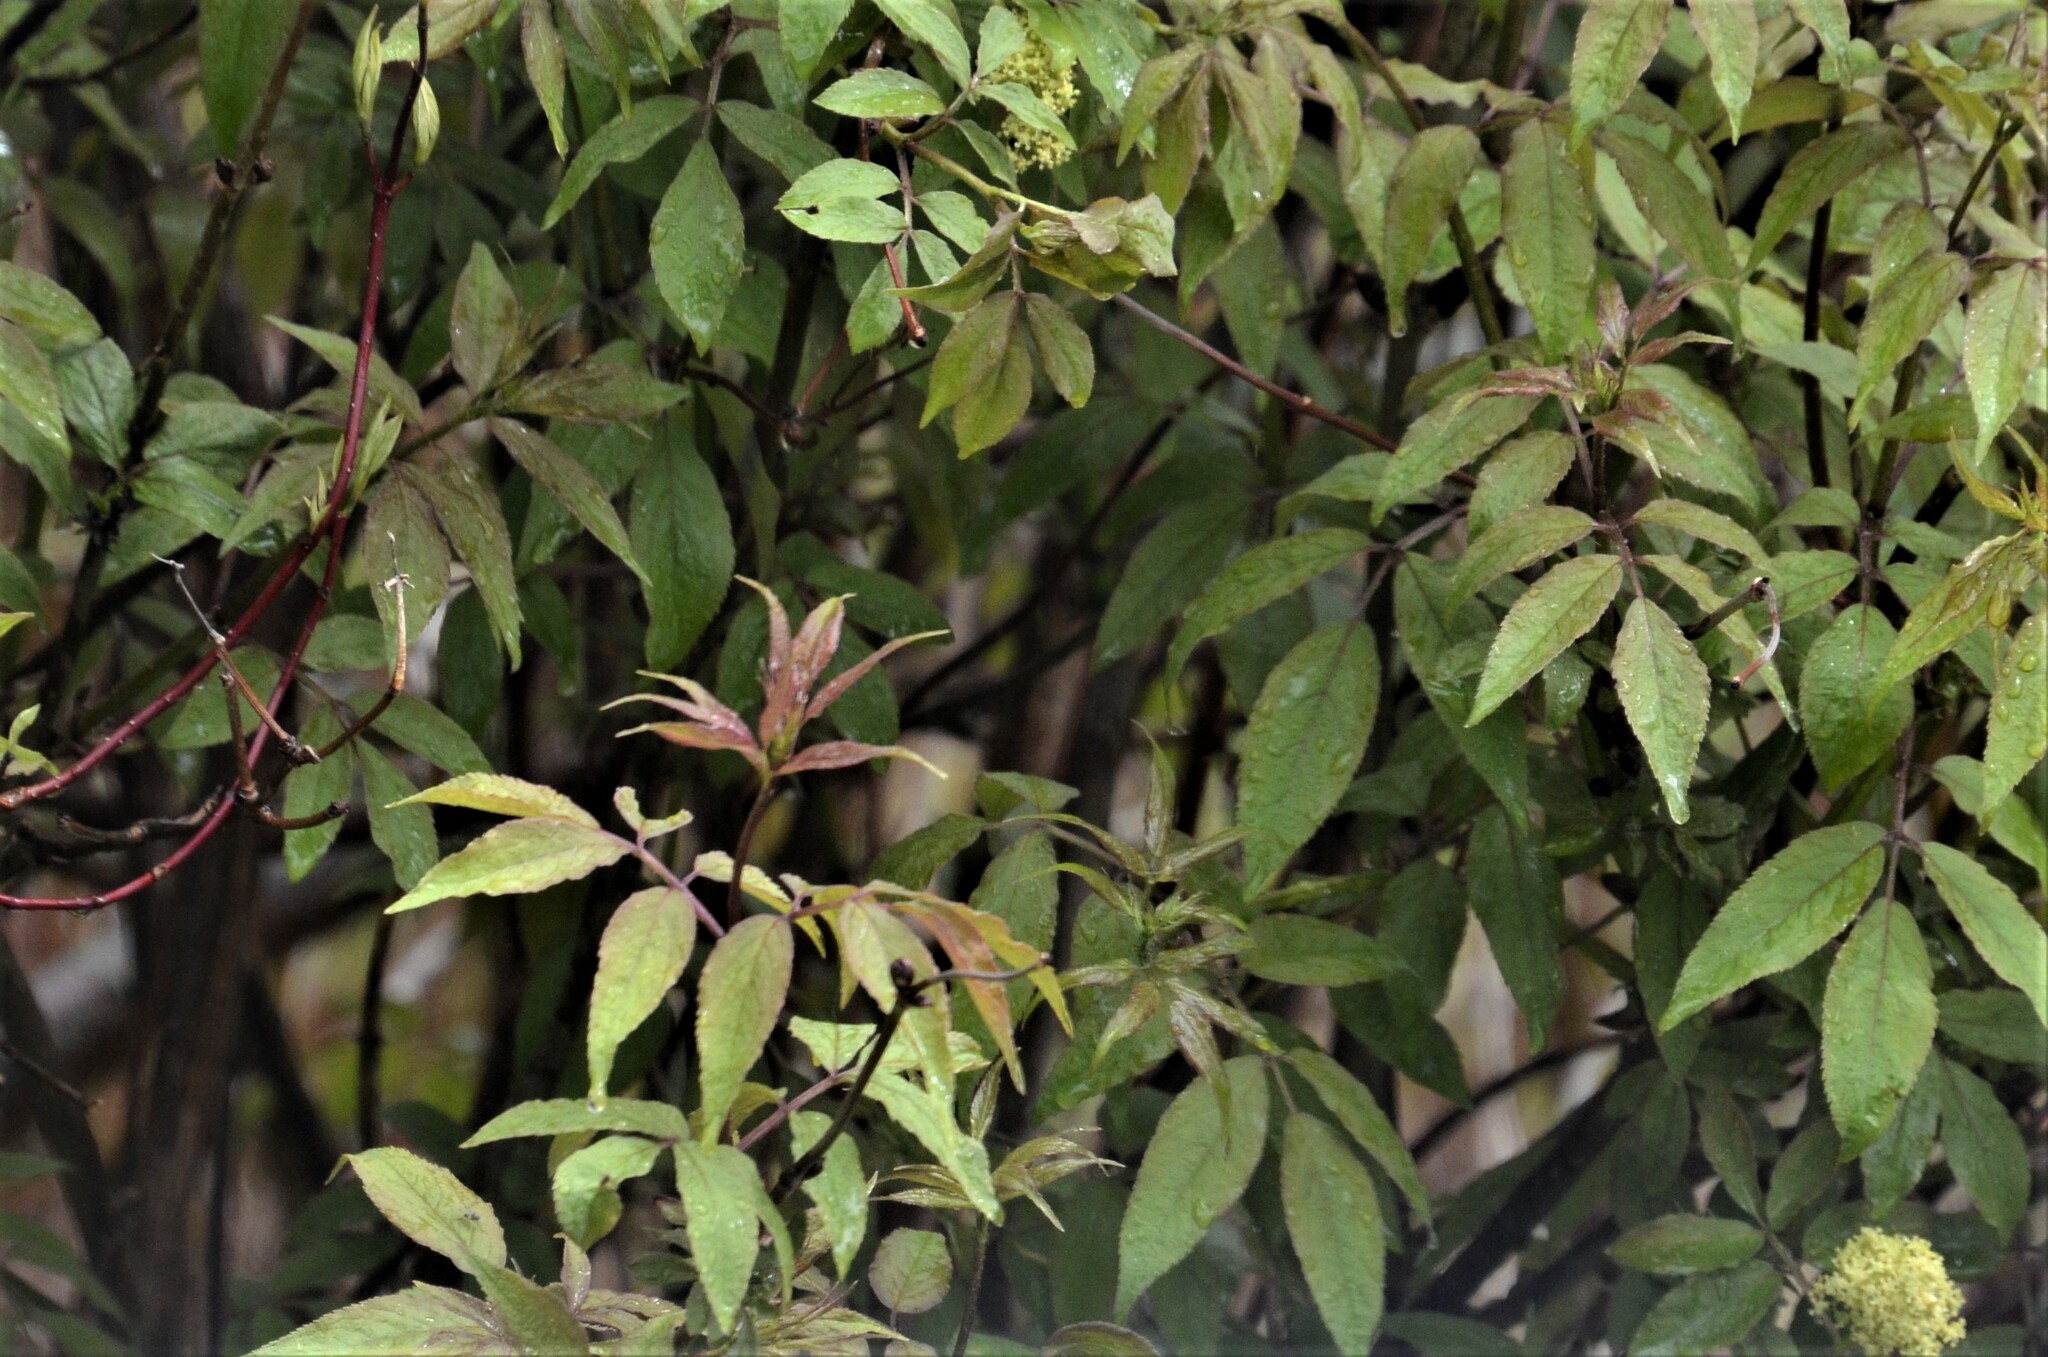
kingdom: Plantae
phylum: Tracheophyta
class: Magnoliopsida
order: Dipsacales
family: Viburnaceae
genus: Sambucus
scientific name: Sambucus racemosa
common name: Red-berried elder
